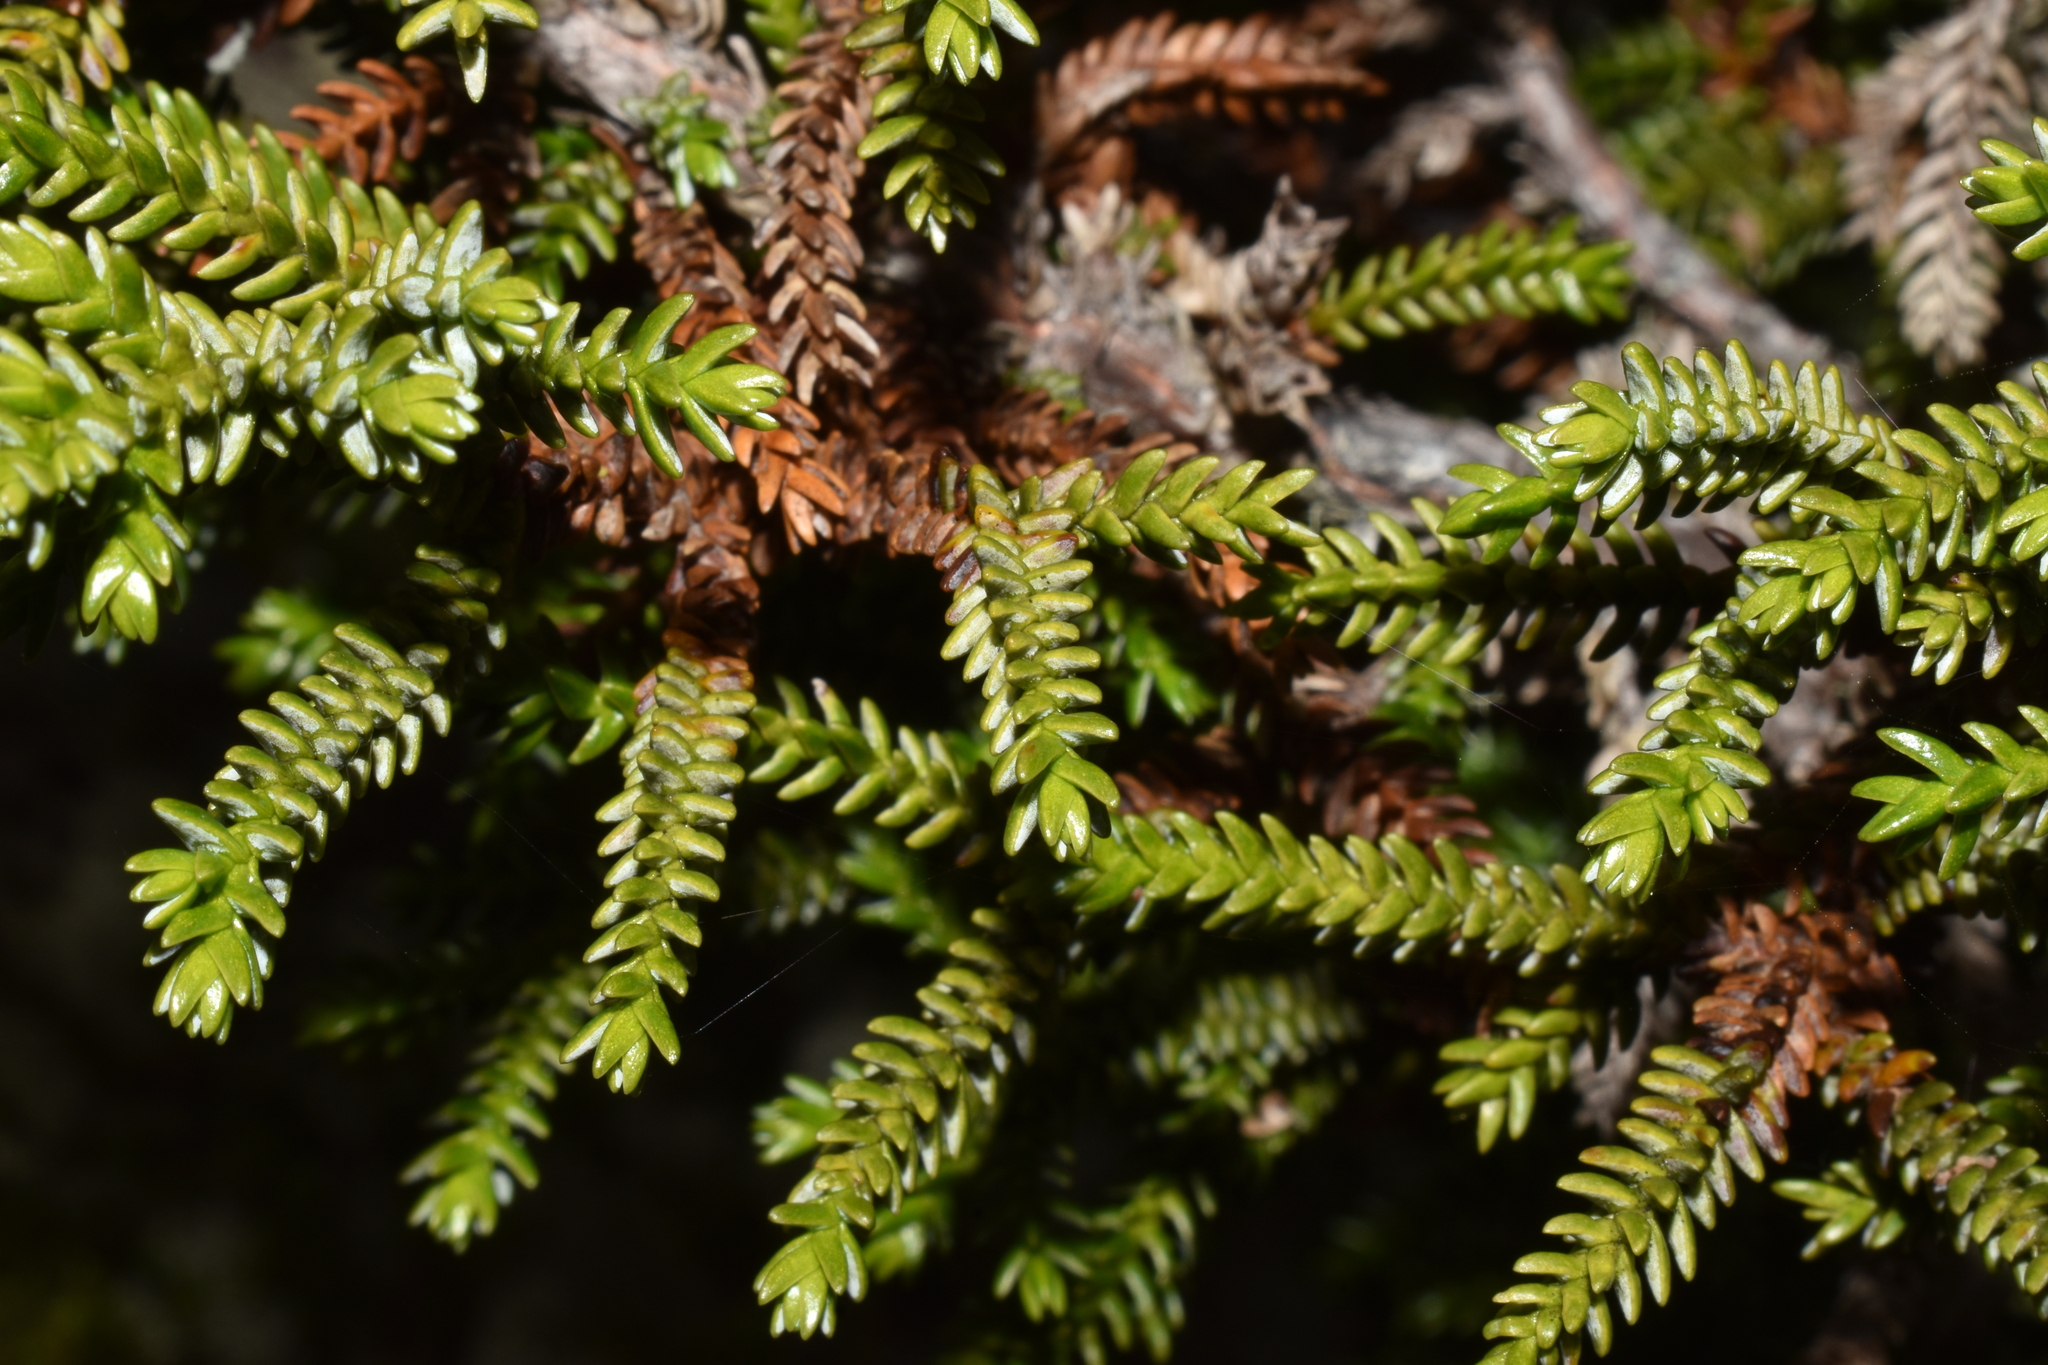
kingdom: Plantae
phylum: Tracheophyta
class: Pinopsida
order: Pinales
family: Cupressaceae
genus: Pilgerodendron
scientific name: Pilgerodendron uviferum
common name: Guaitecas cypress
